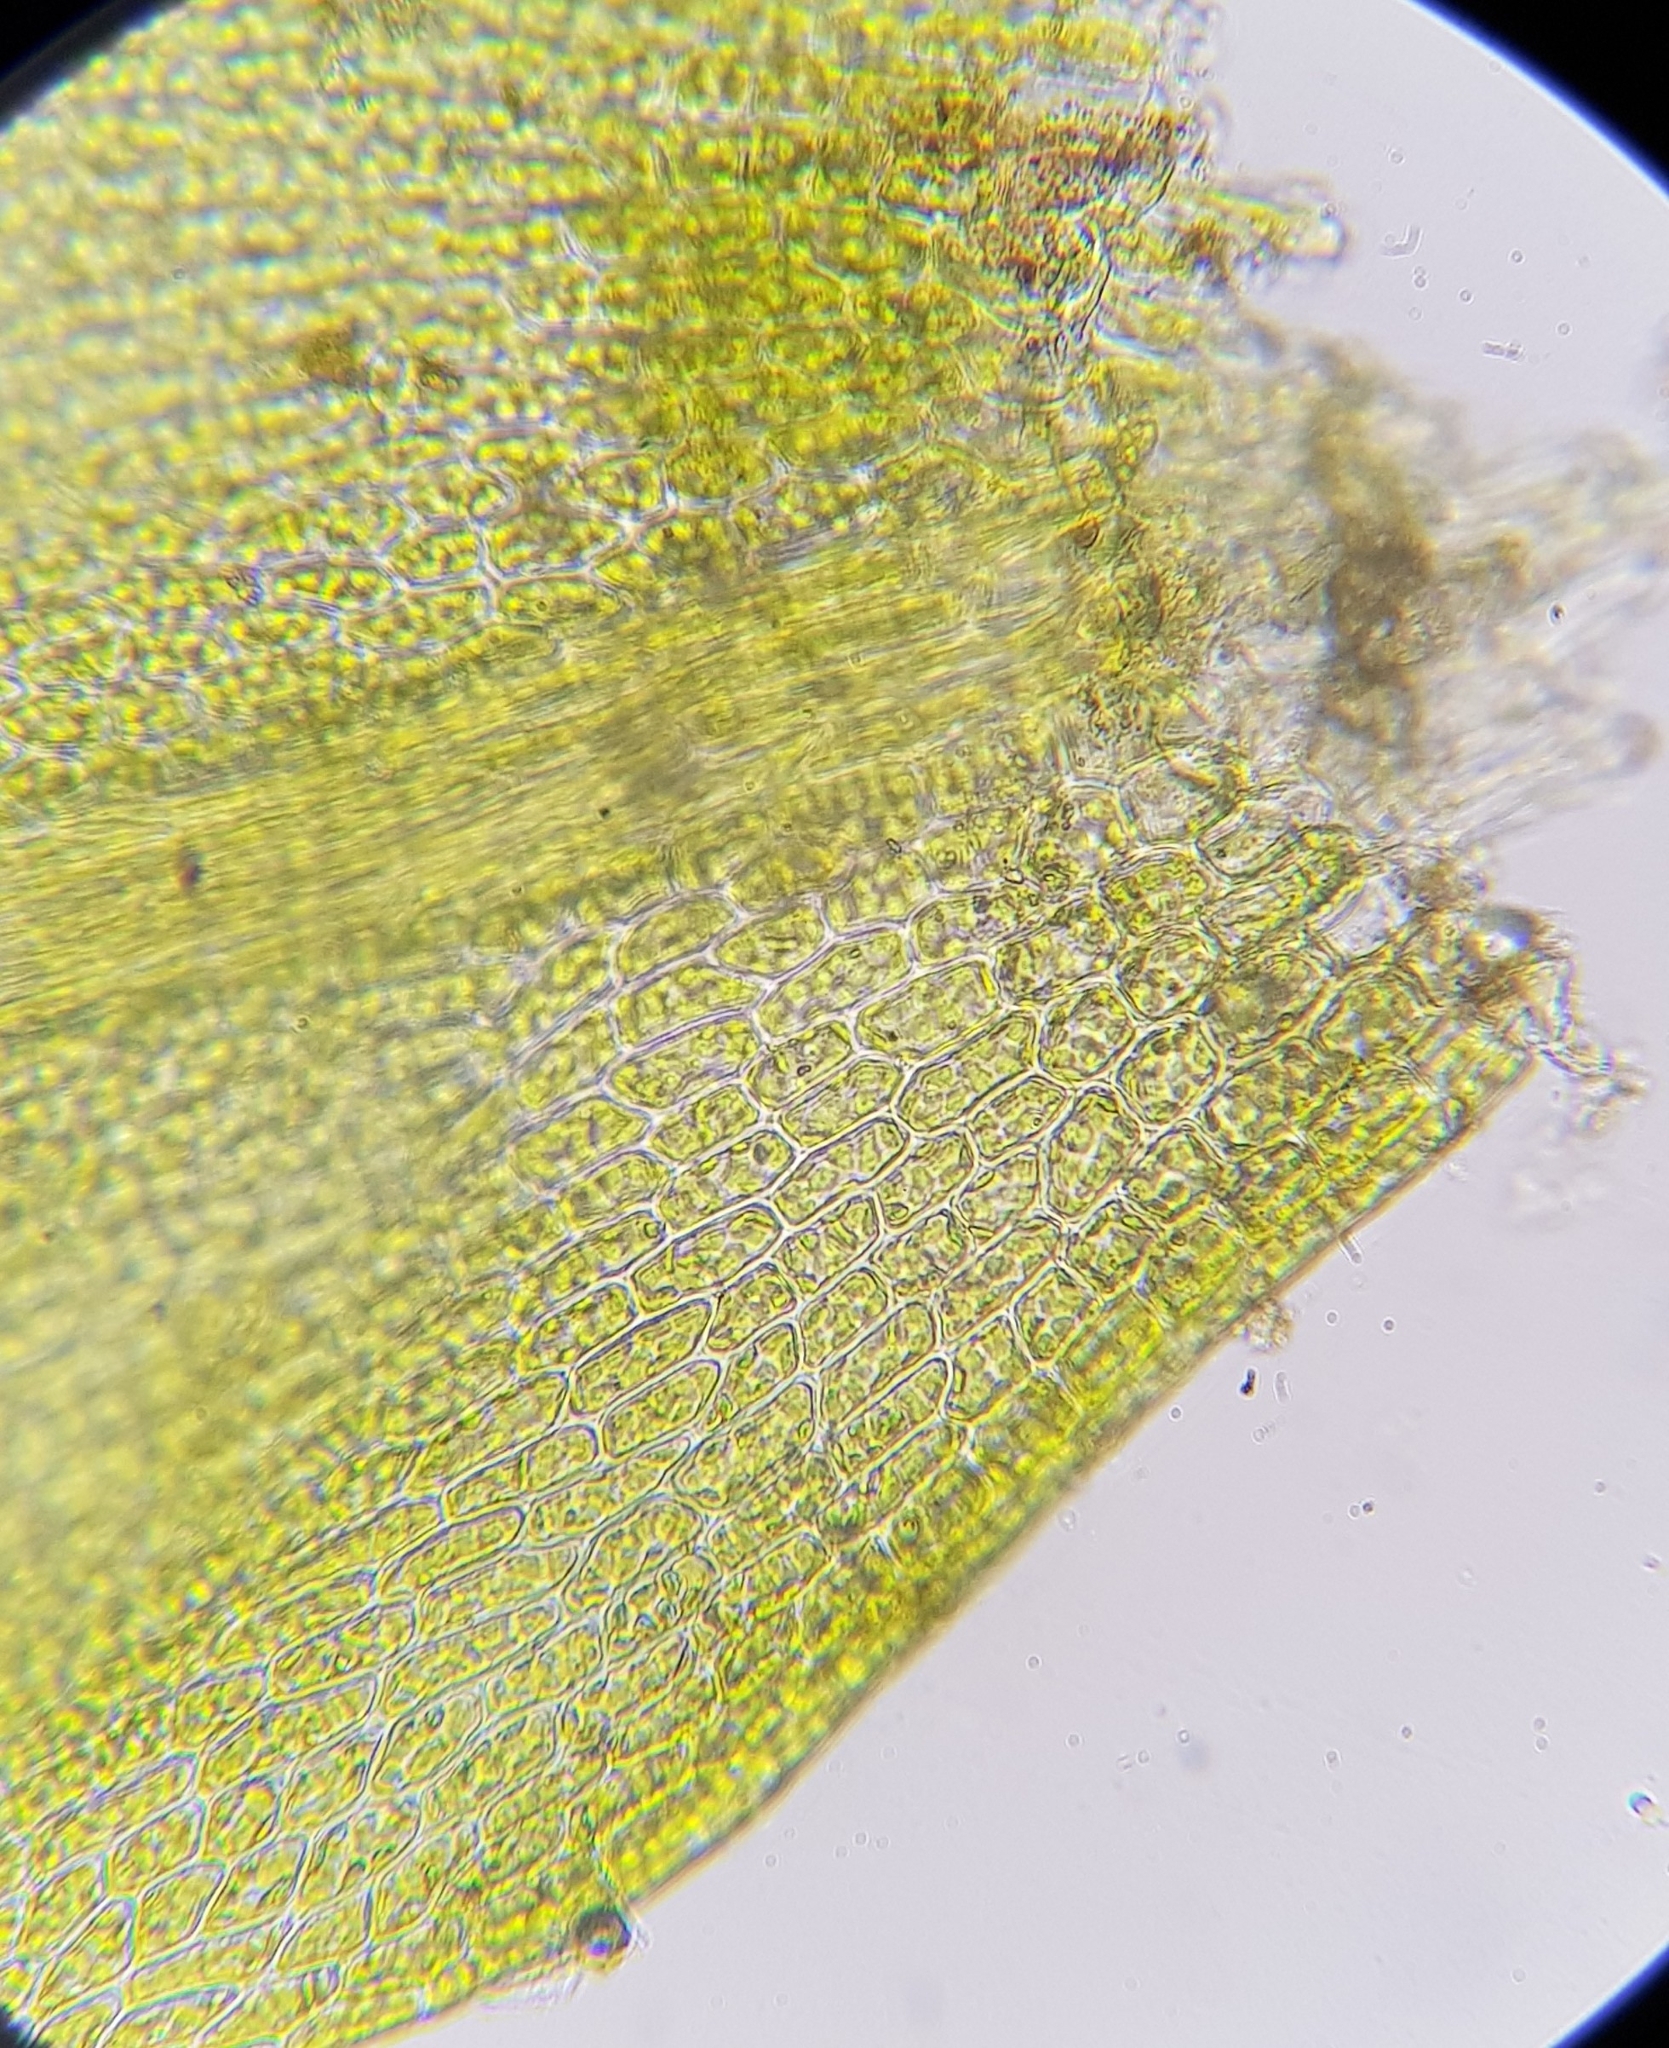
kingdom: Plantae
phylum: Bryophyta
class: Bryopsida
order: Hypnales
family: Amblystegiaceae
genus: Hygroamblystegium
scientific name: Hygroamblystegium fluviatile
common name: Brook-side feather-moss
